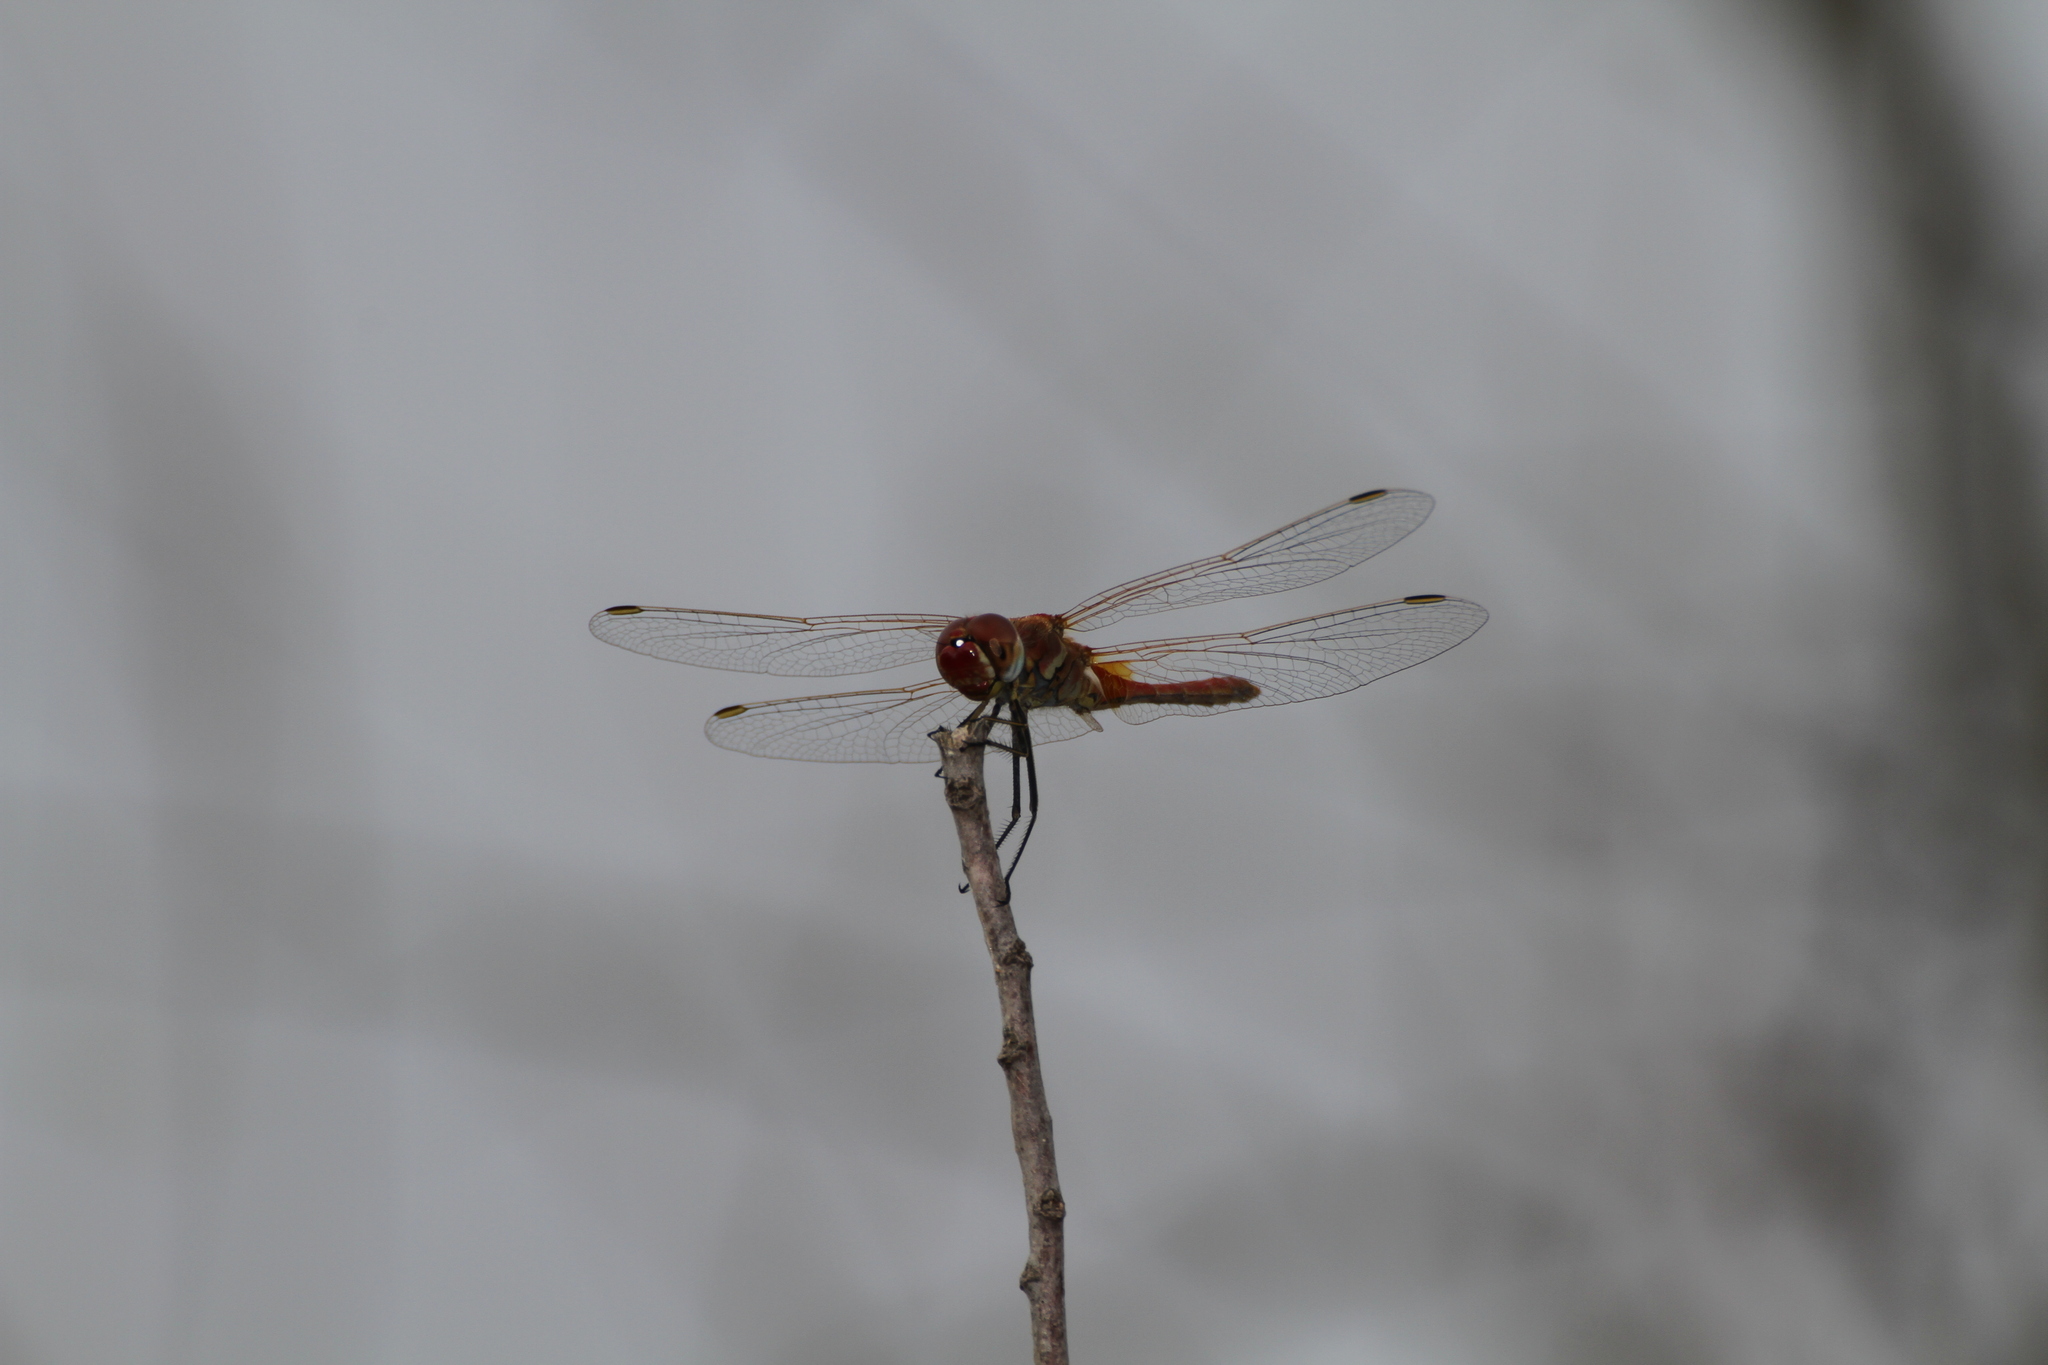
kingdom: Animalia
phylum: Arthropoda
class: Insecta
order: Odonata
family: Libellulidae
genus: Sympetrum
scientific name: Sympetrum fonscolombii
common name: Red-veined darter
